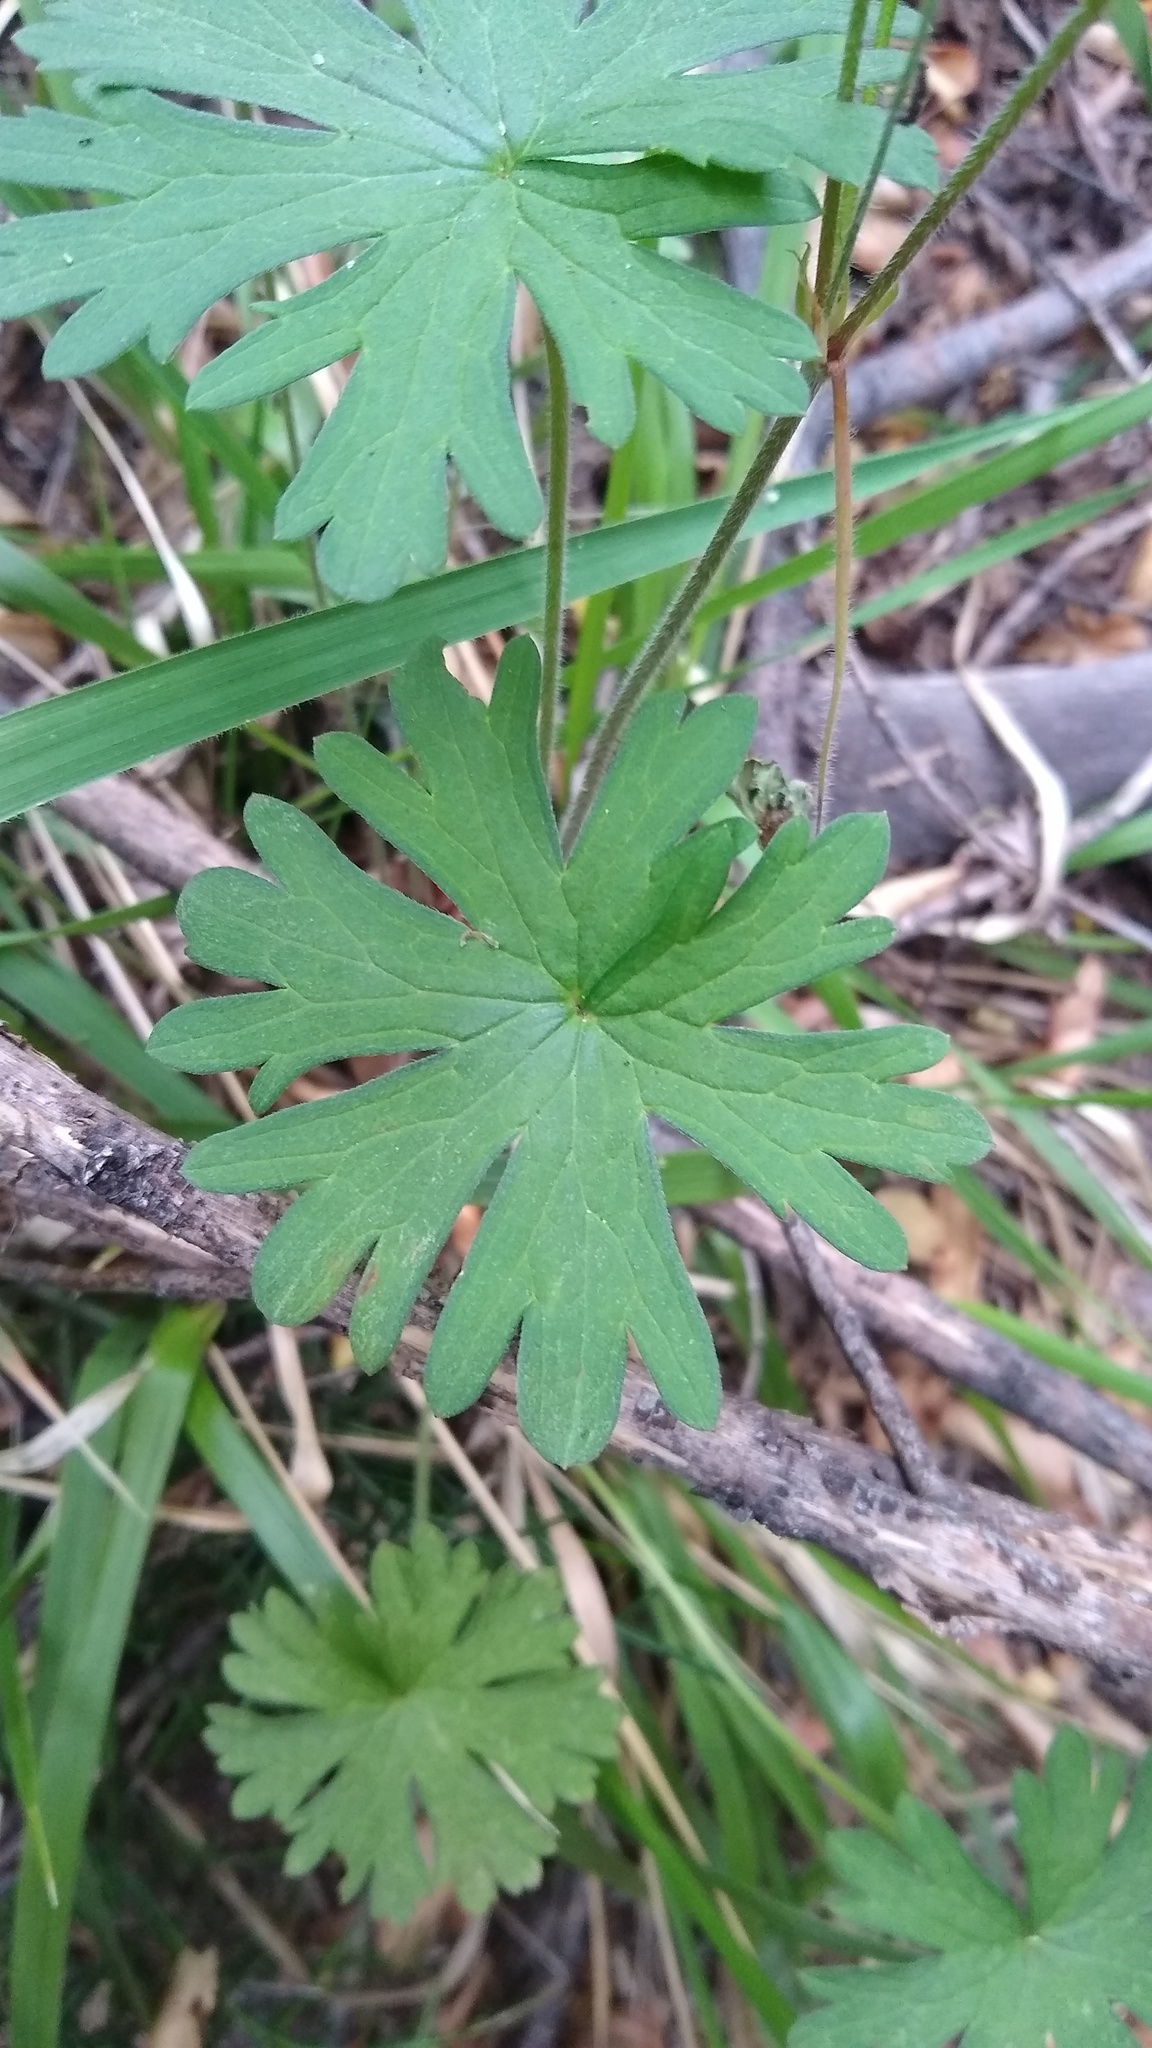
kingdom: Plantae
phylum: Tracheophyta
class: Magnoliopsida
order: Geraniales
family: Geraniaceae
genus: Geranium
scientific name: Geranium sessiliflorum
